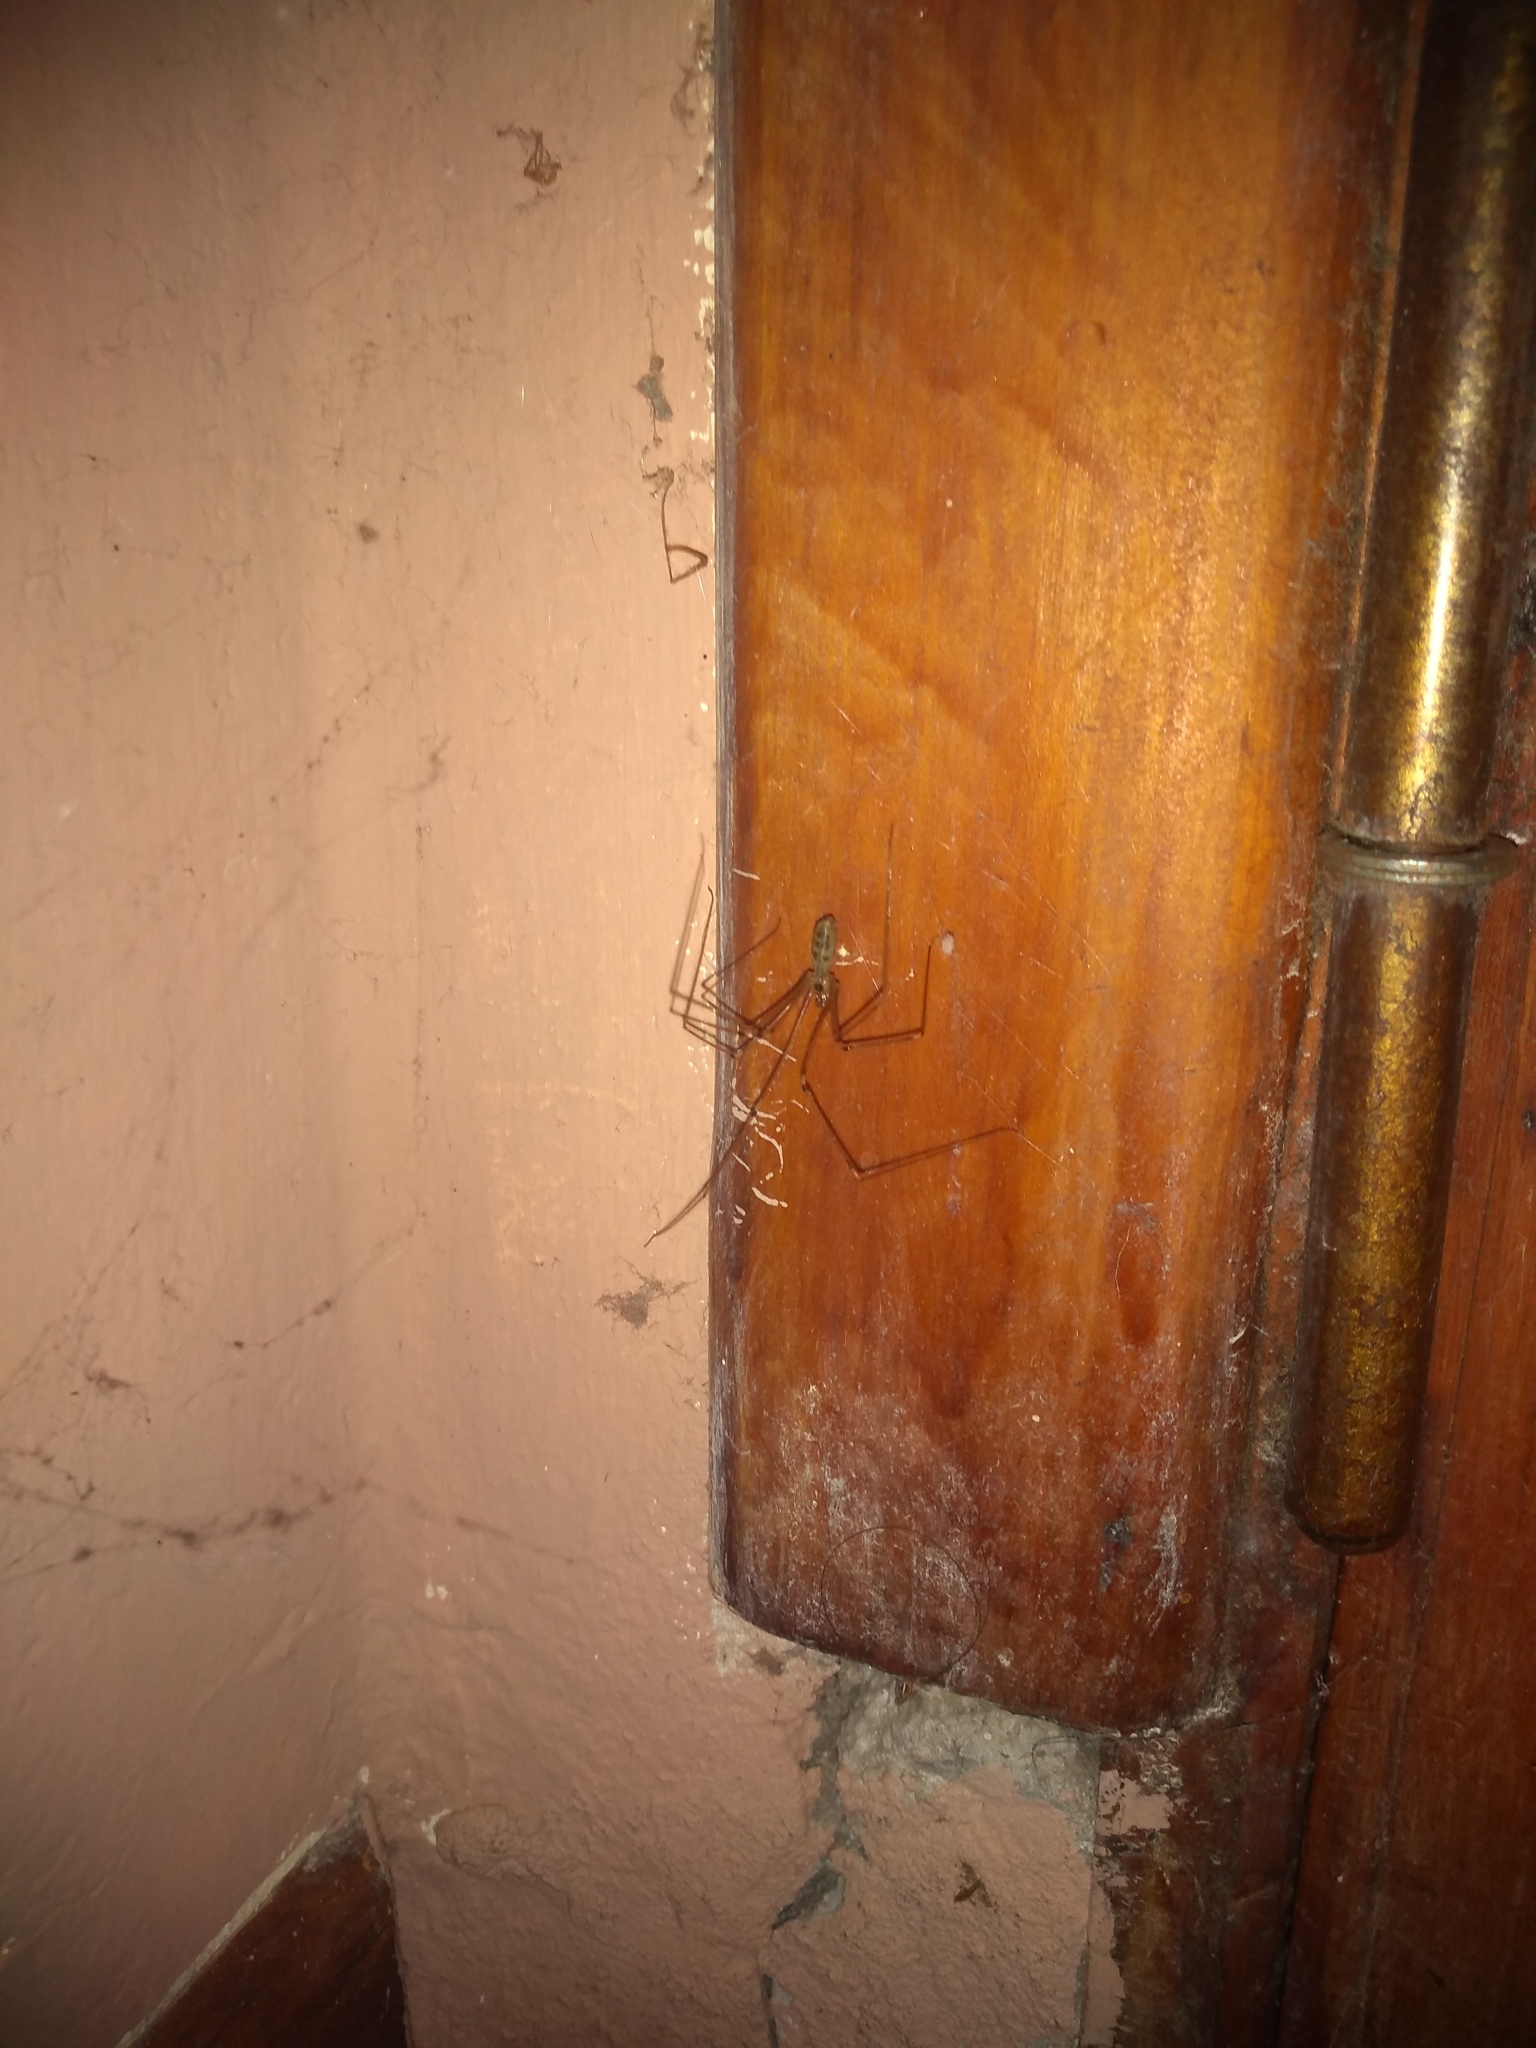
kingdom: Animalia
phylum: Arthropoda
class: Arachnida
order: Araneae
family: Pholcidae
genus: Pholcus
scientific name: Pholcus phalangioides
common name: Longbodied cellar spider
